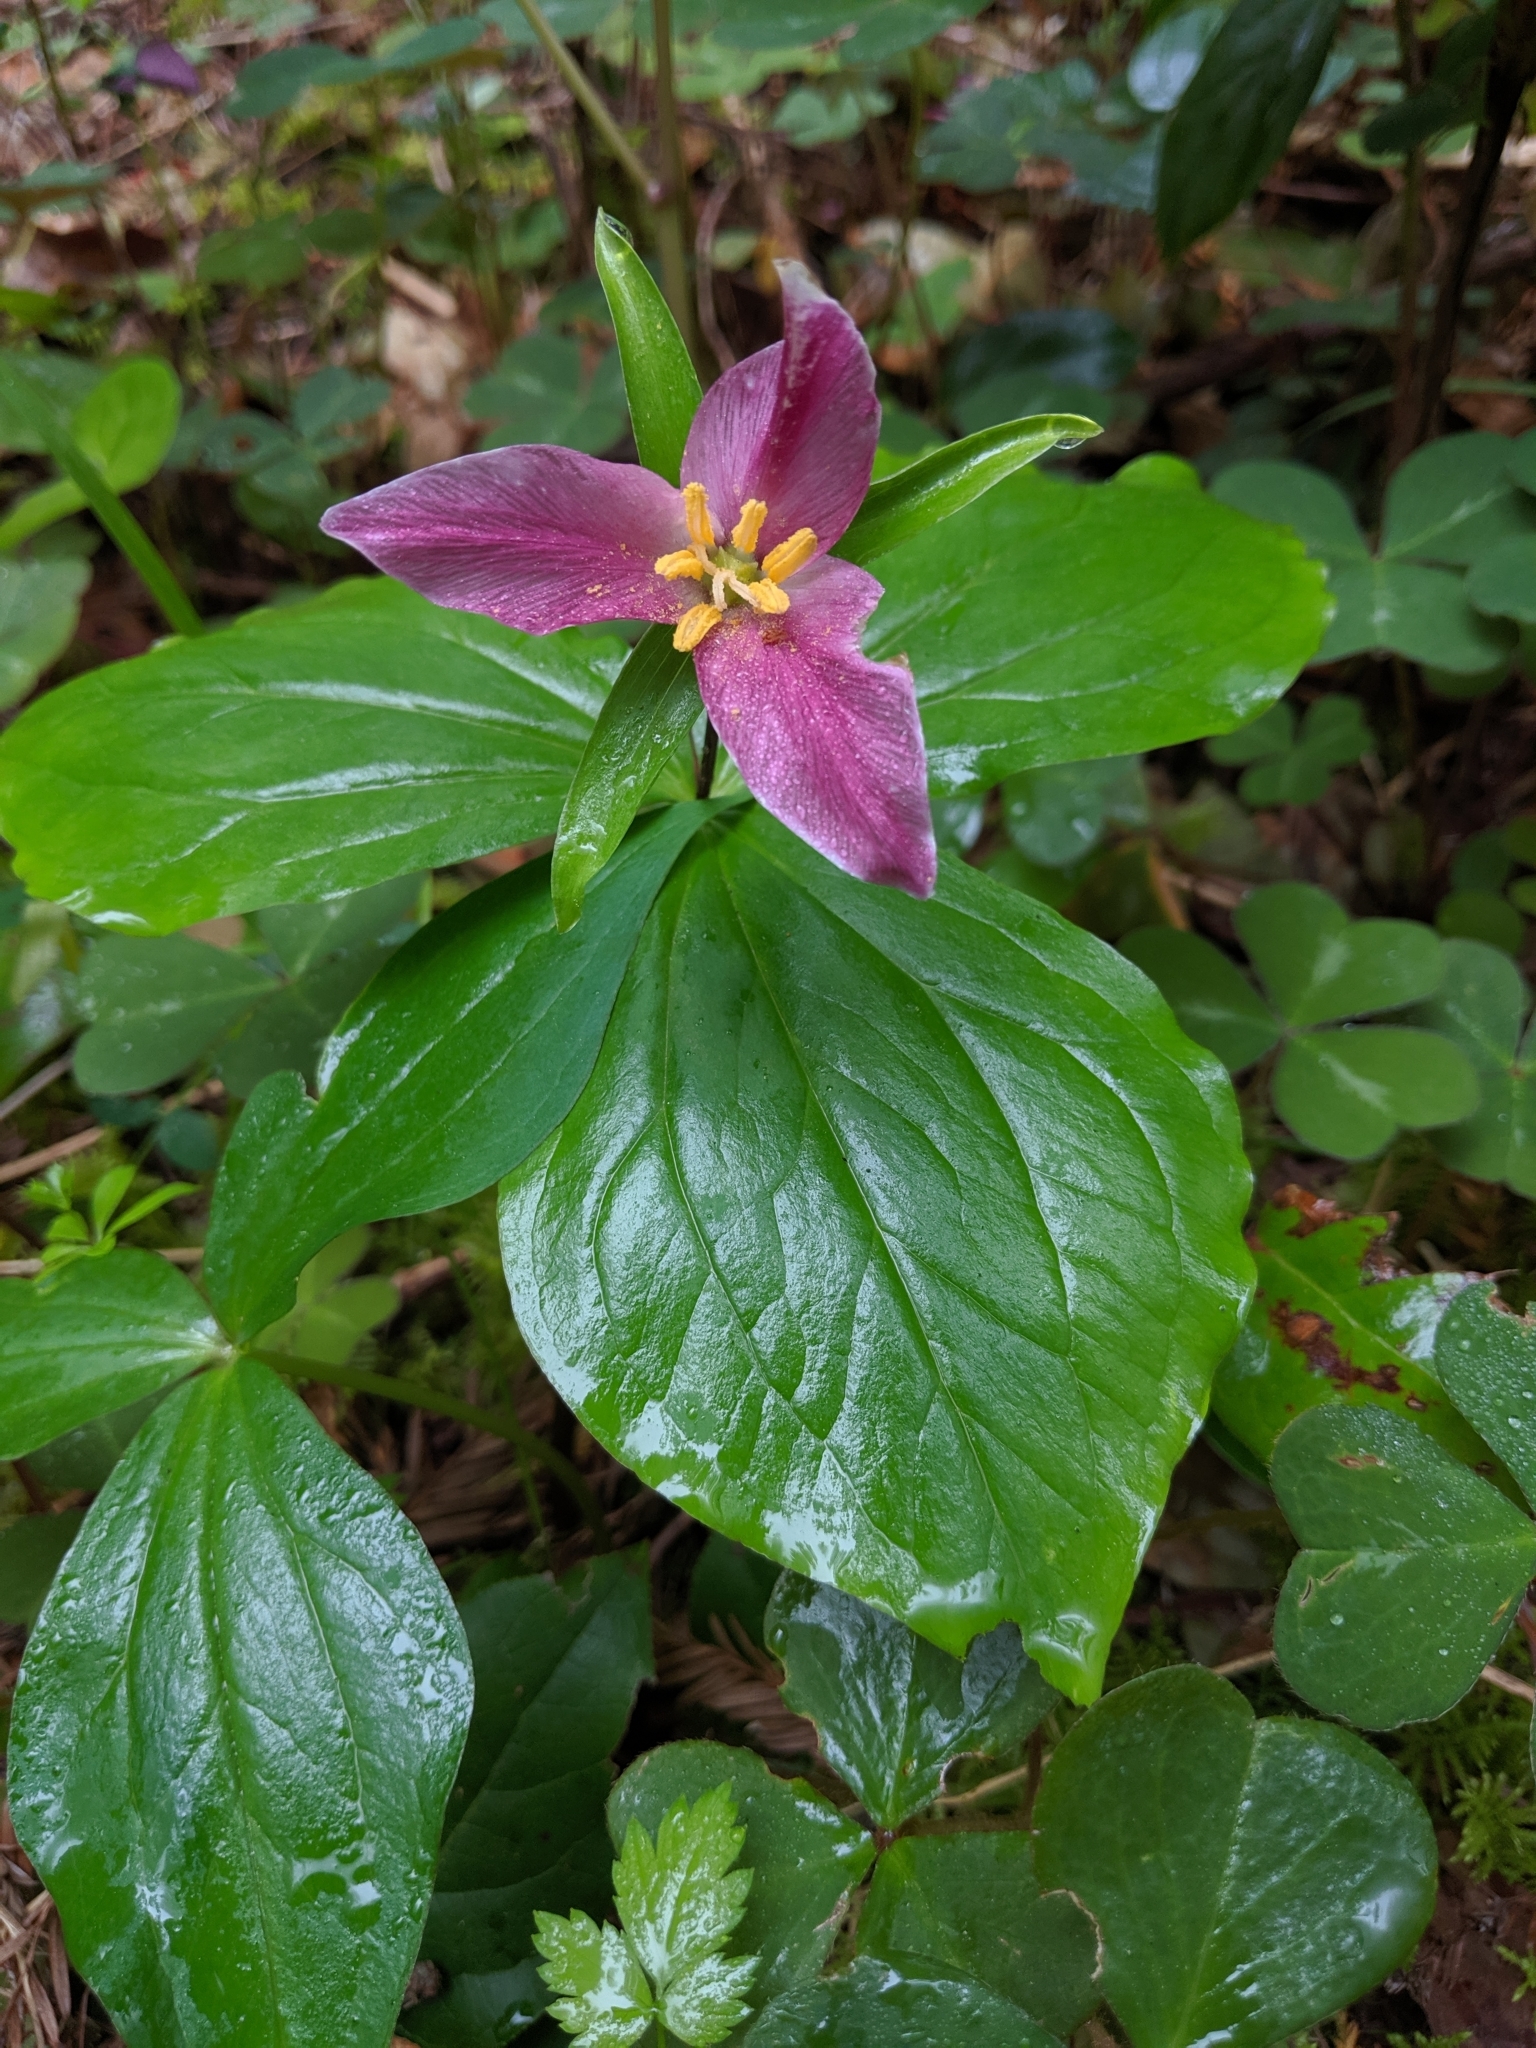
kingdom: Plantae
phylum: Tracheophyta
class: Liliopsida
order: Liliales
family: Melanthiaceae
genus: Trillium
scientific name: Trillium ovatum
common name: Pacific trillium
